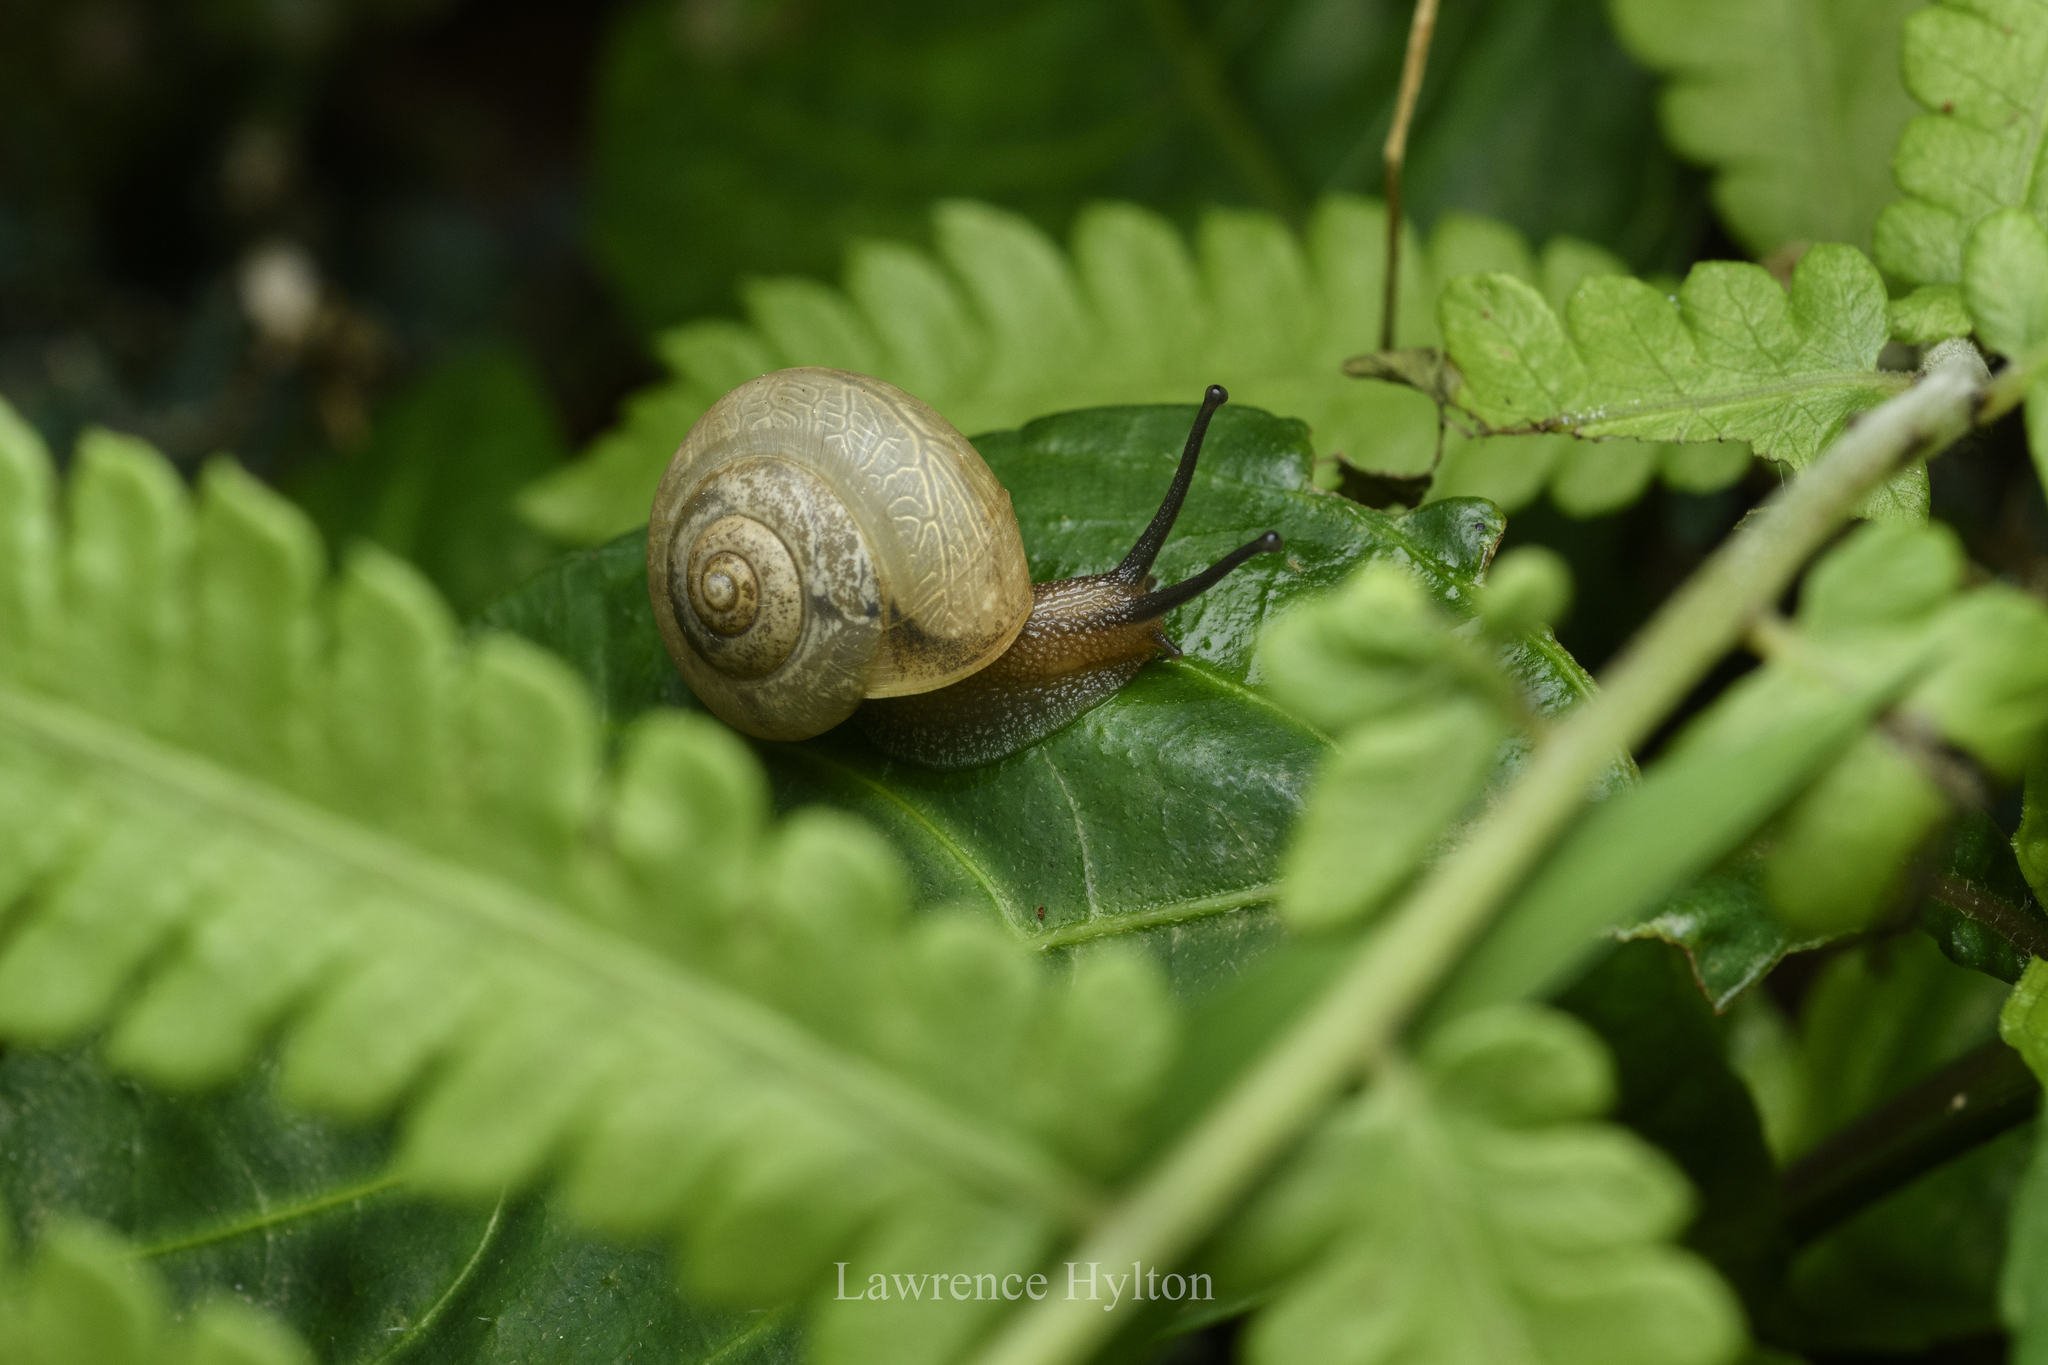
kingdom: Animalia
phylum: Mollusca
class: Gastropoda
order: Stylommatophora
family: Camaenidae
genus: Bradybaena
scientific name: Bradybaena similaris
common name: Asian trampsnail
